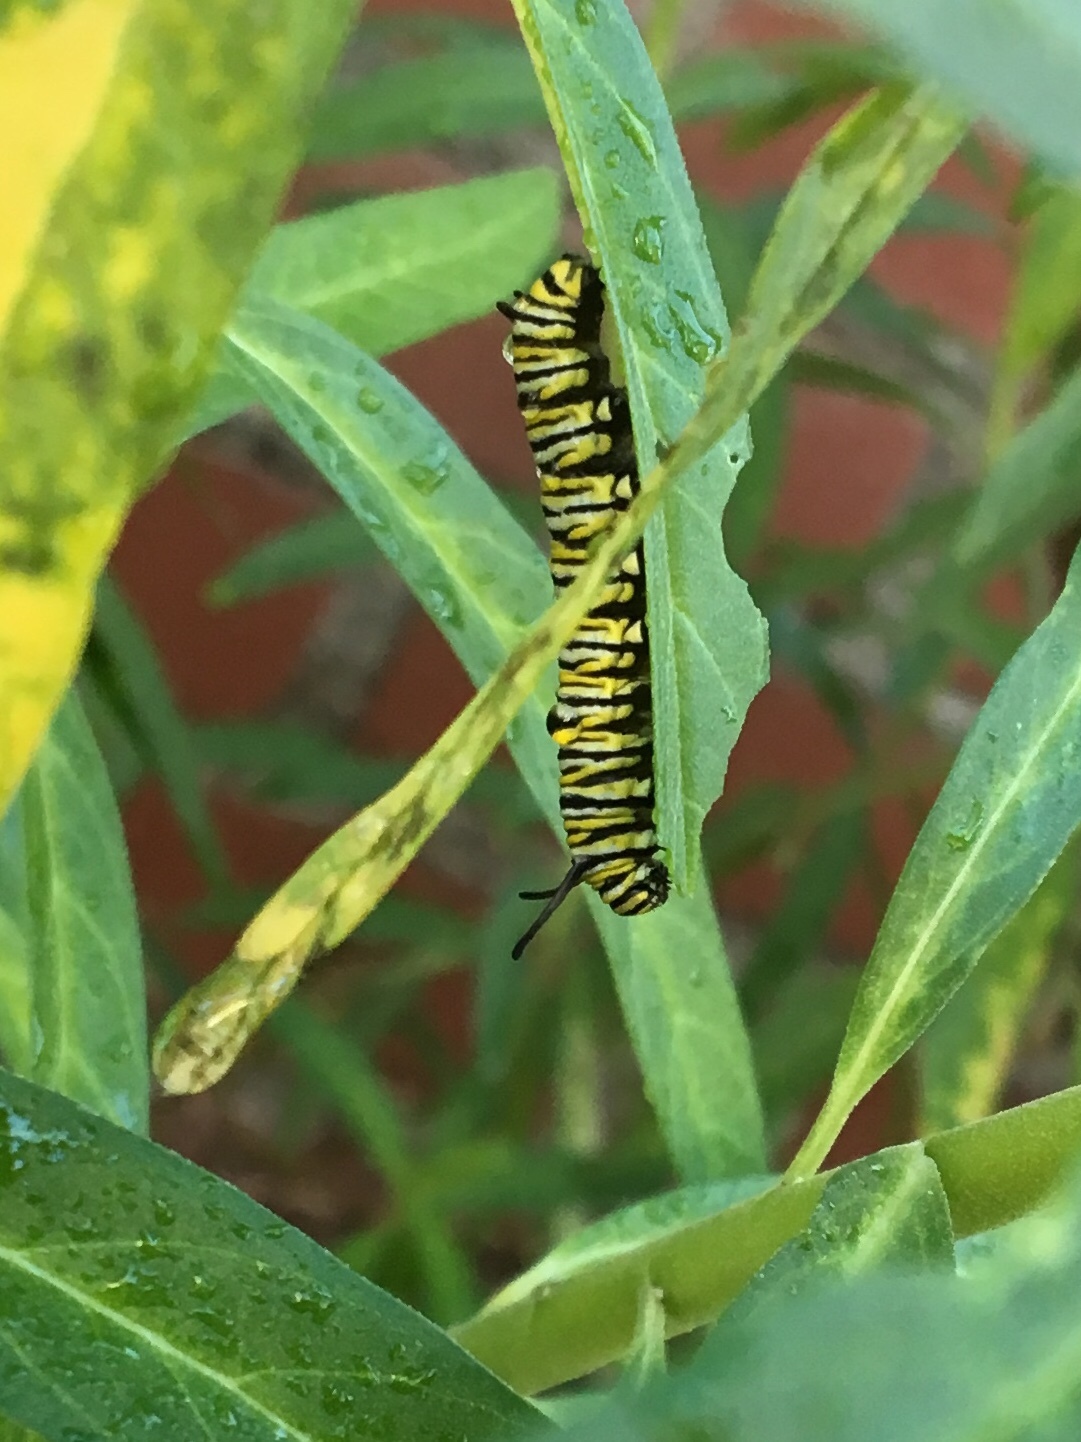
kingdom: Animalia
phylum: Arthropoda
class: Insecta
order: Lepidoptera
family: Nymphalidae
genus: Danaus
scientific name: Danaus plexippus
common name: Monarch
